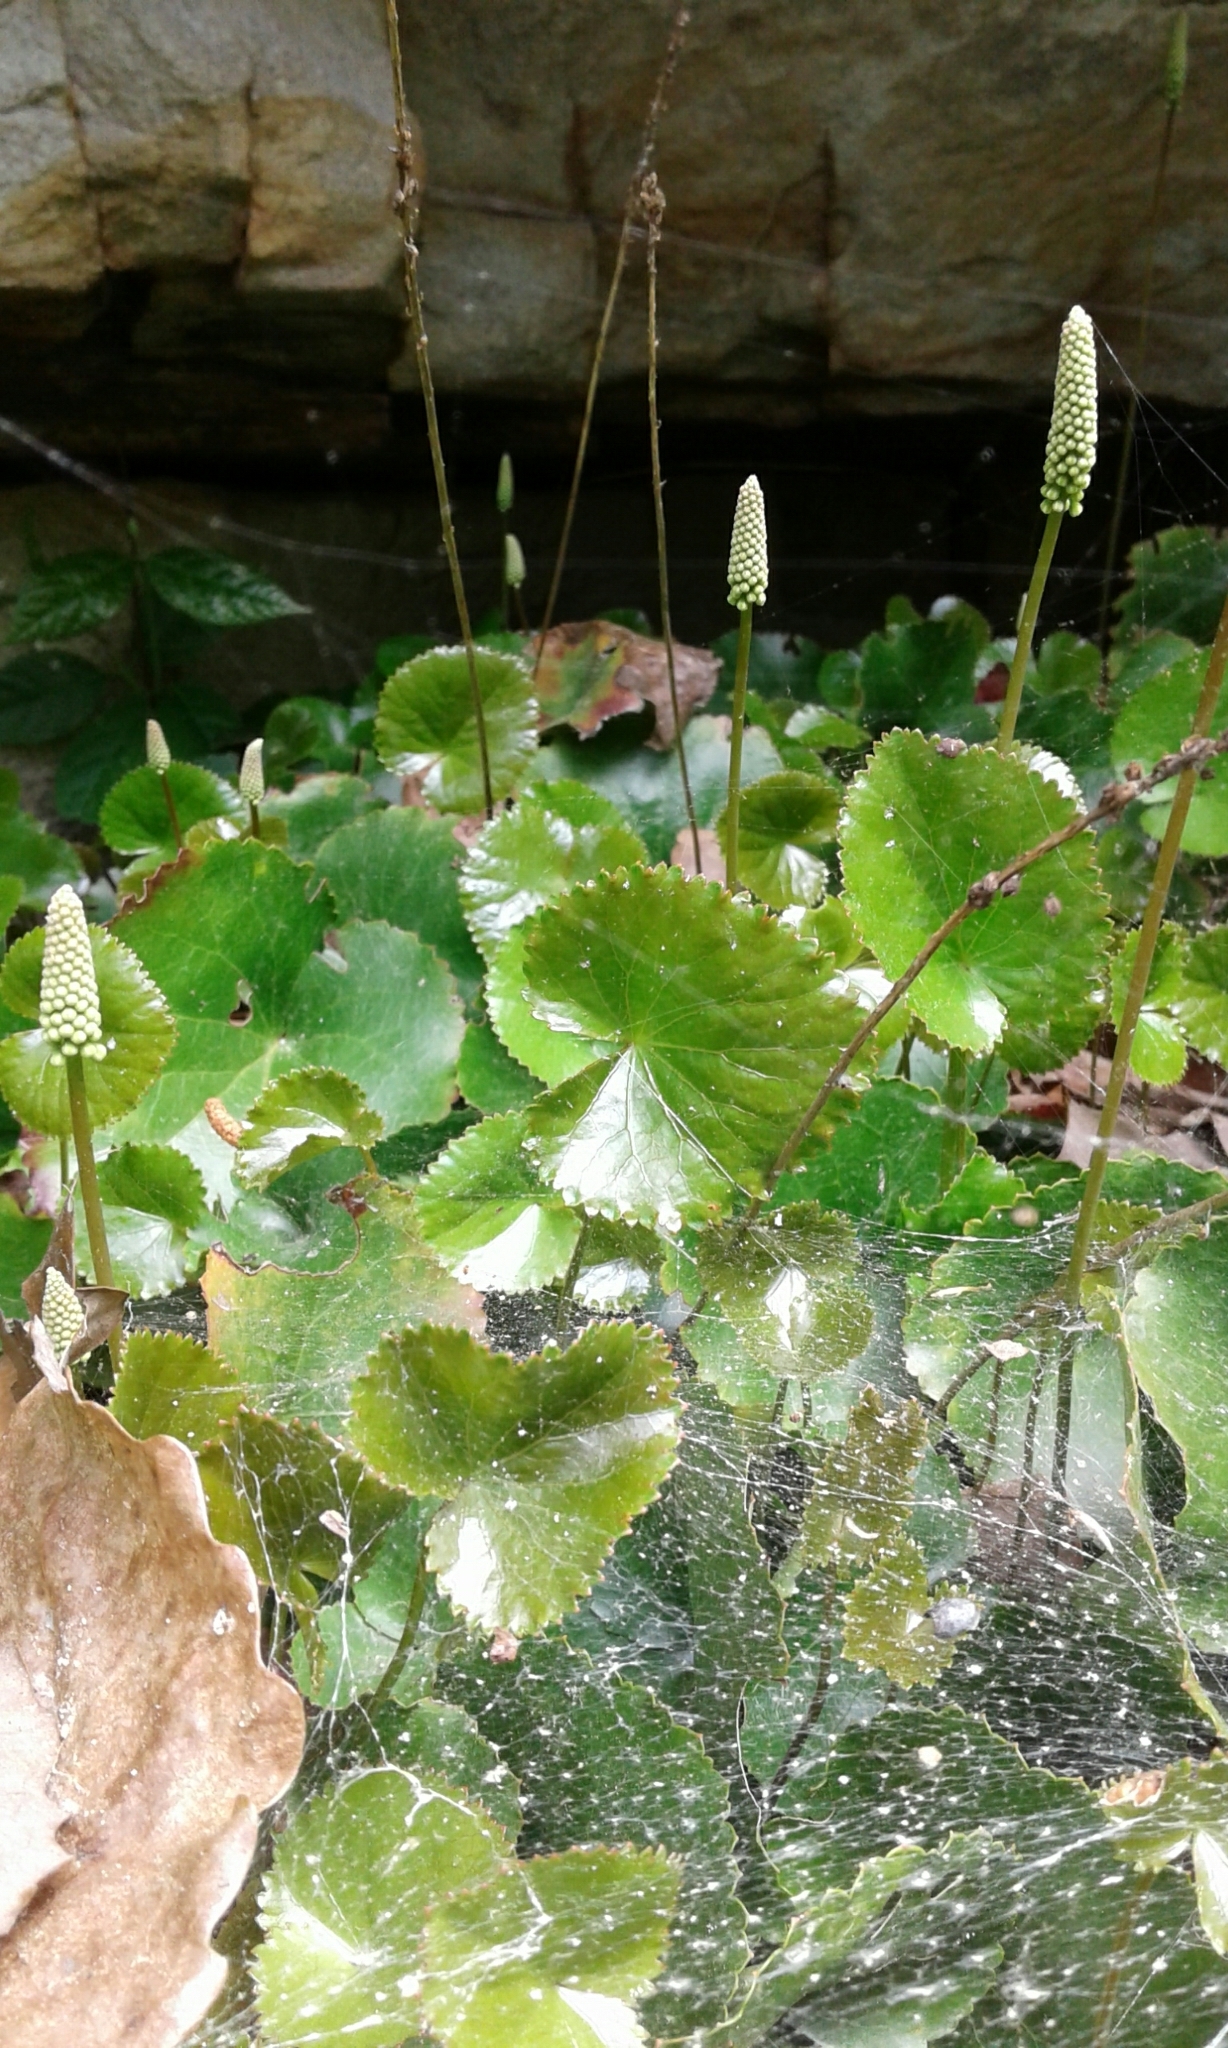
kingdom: Plantae
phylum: Tracheophyta
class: Magnoliopsida
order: Ericales
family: Diapensiaceae
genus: Galax
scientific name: Galax urceolata
